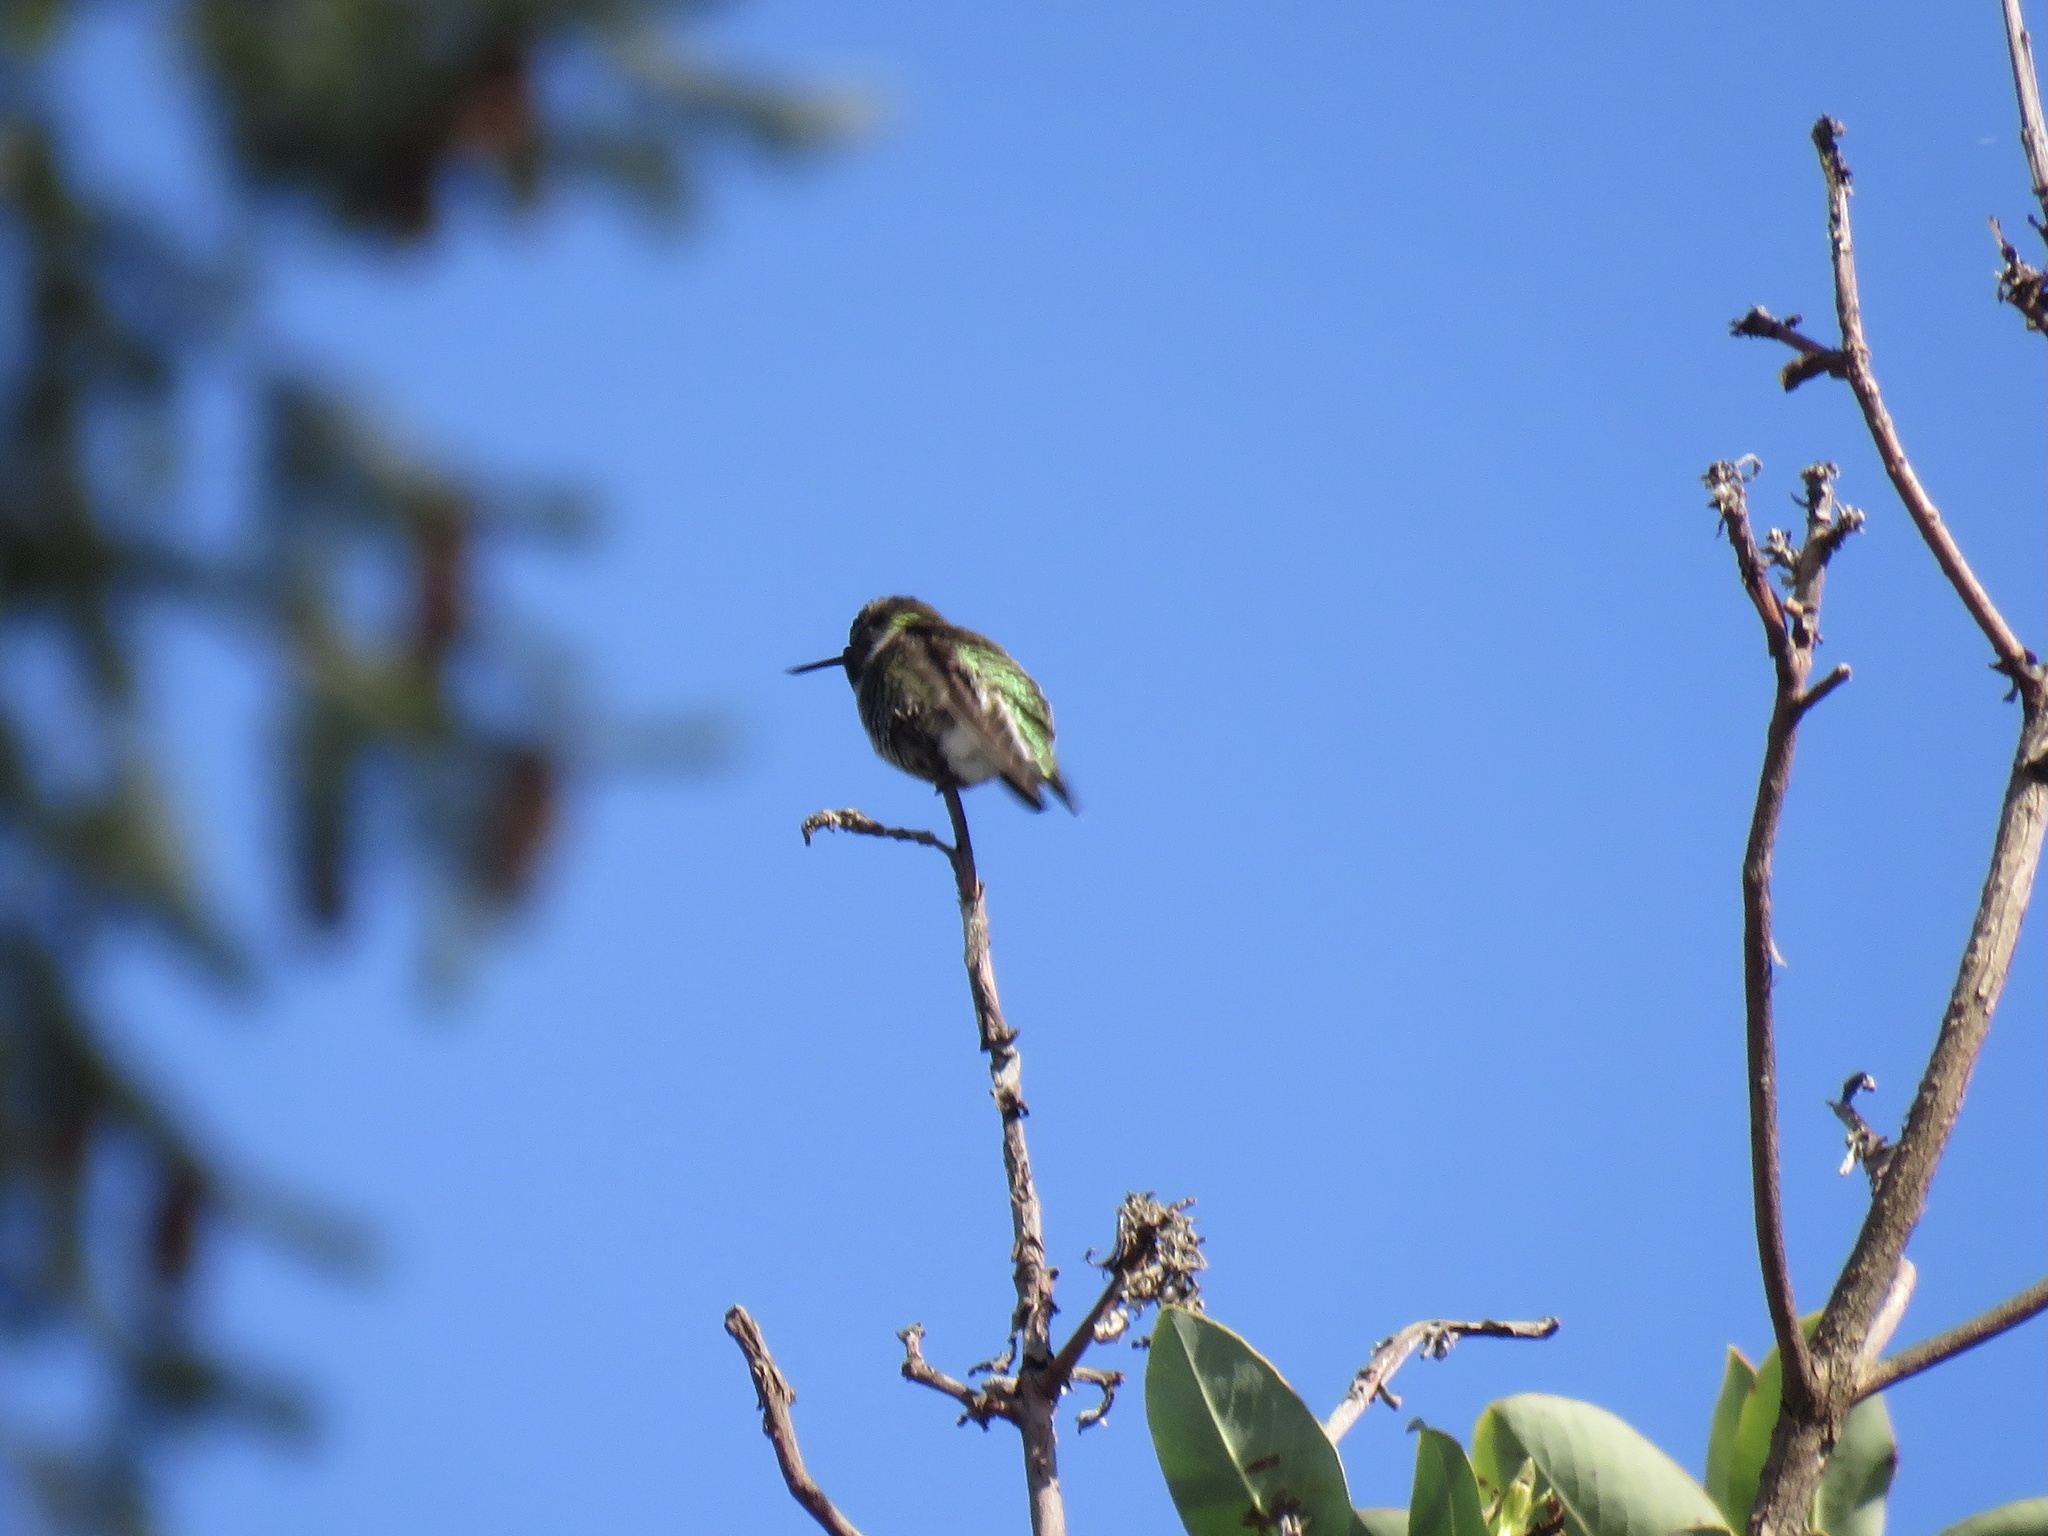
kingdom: Animalia
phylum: Chordata
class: Aves
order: Apodiformes
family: Trochilidae
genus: Calypte
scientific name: Calypte anna
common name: Anna's hummingbird
